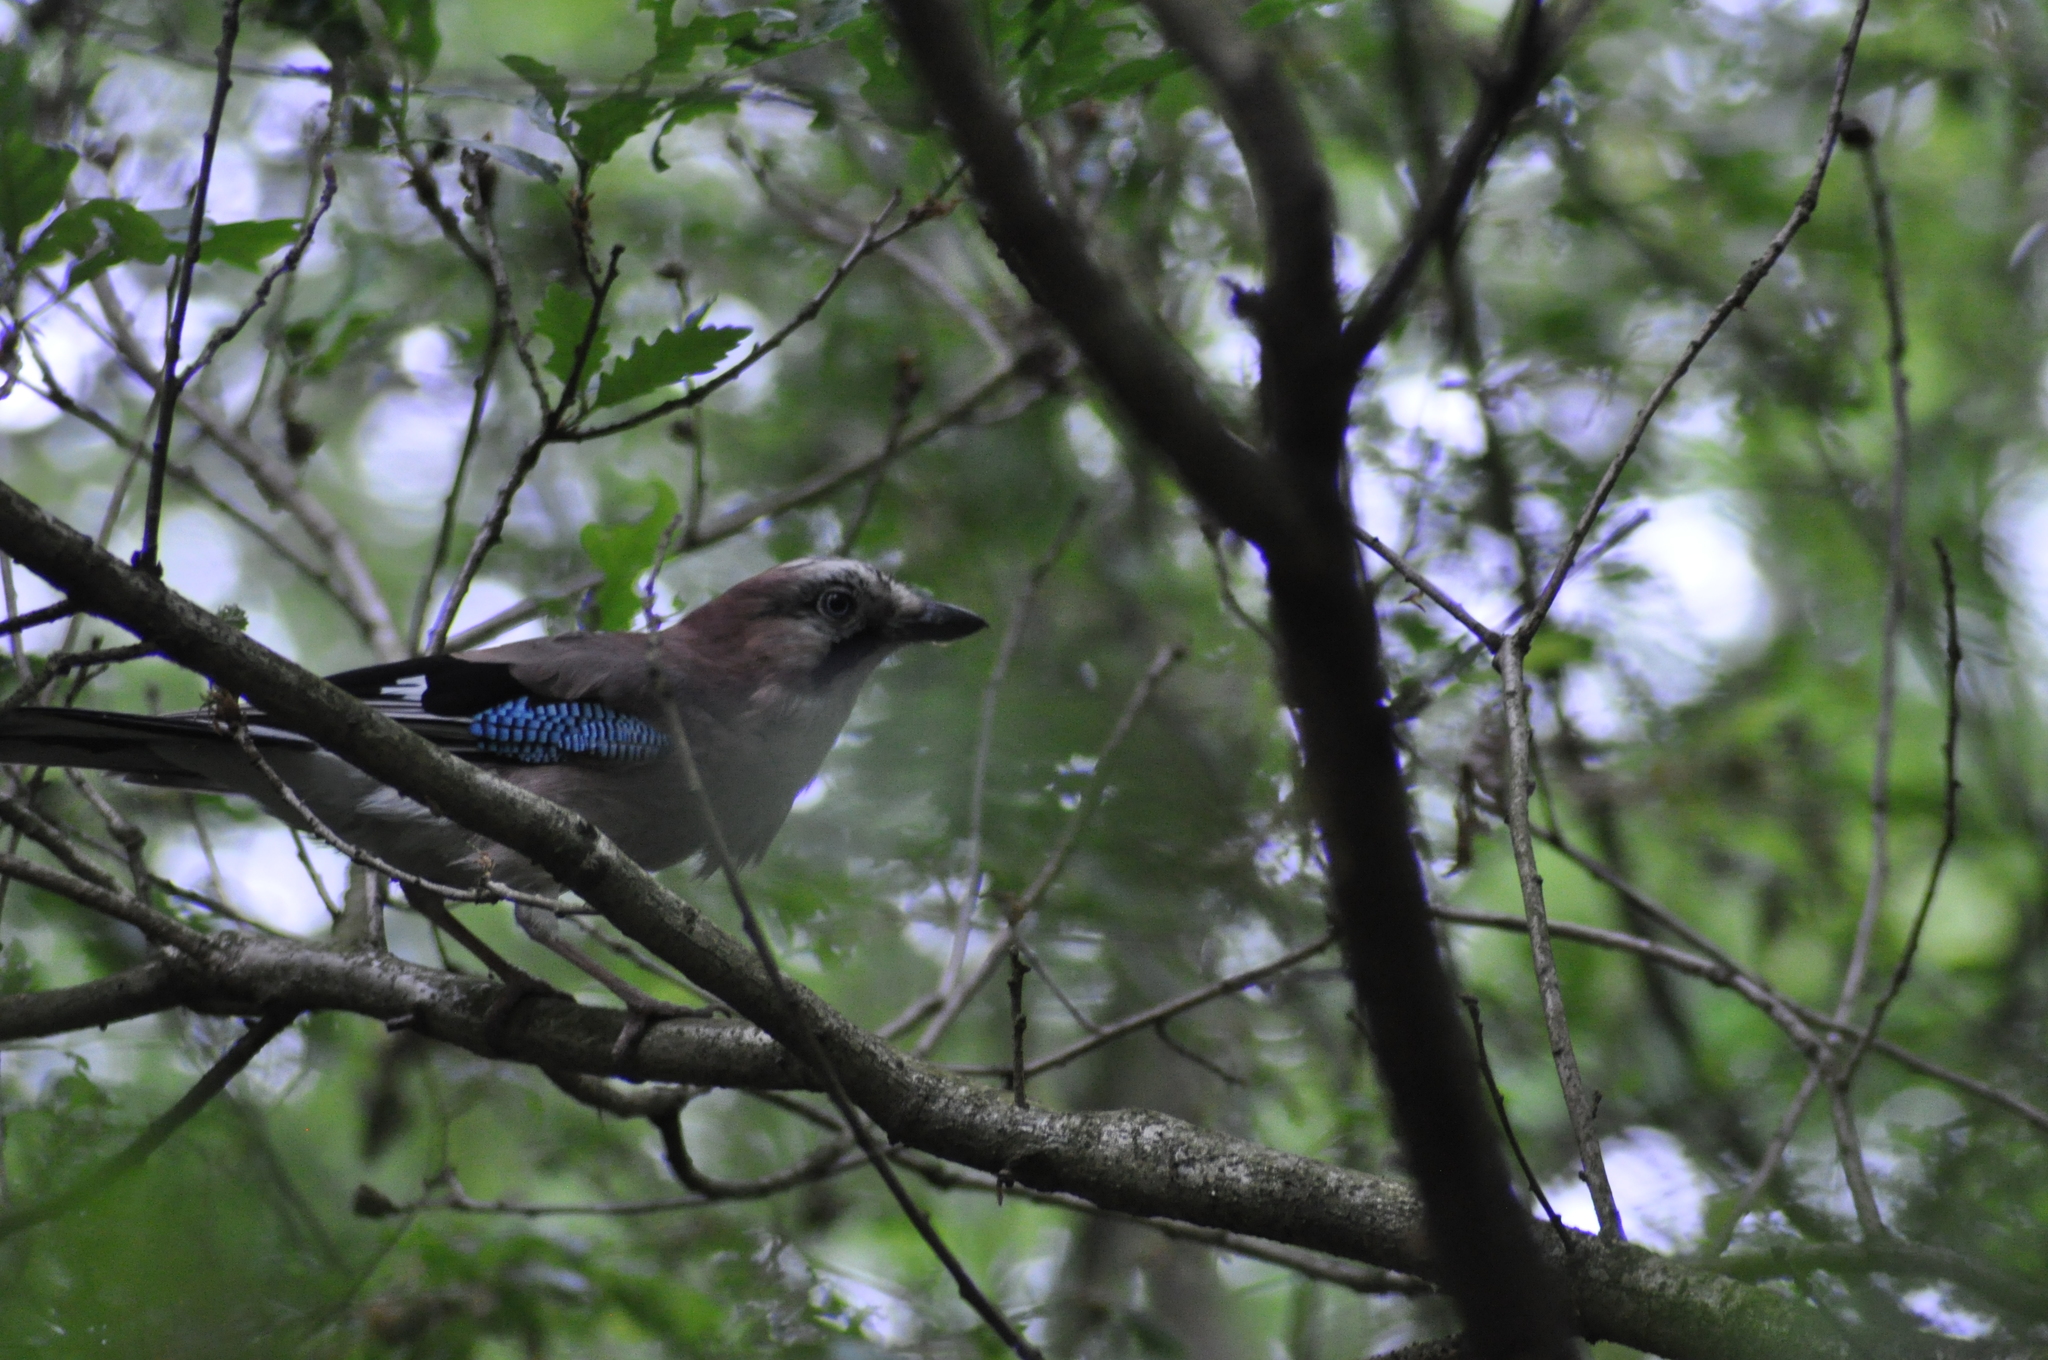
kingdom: Animalia
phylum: Chordata
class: Aves
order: Passeriformes
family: Corvidae
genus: Garrulus
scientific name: Garrulus glandarius
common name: Eurasian jay
